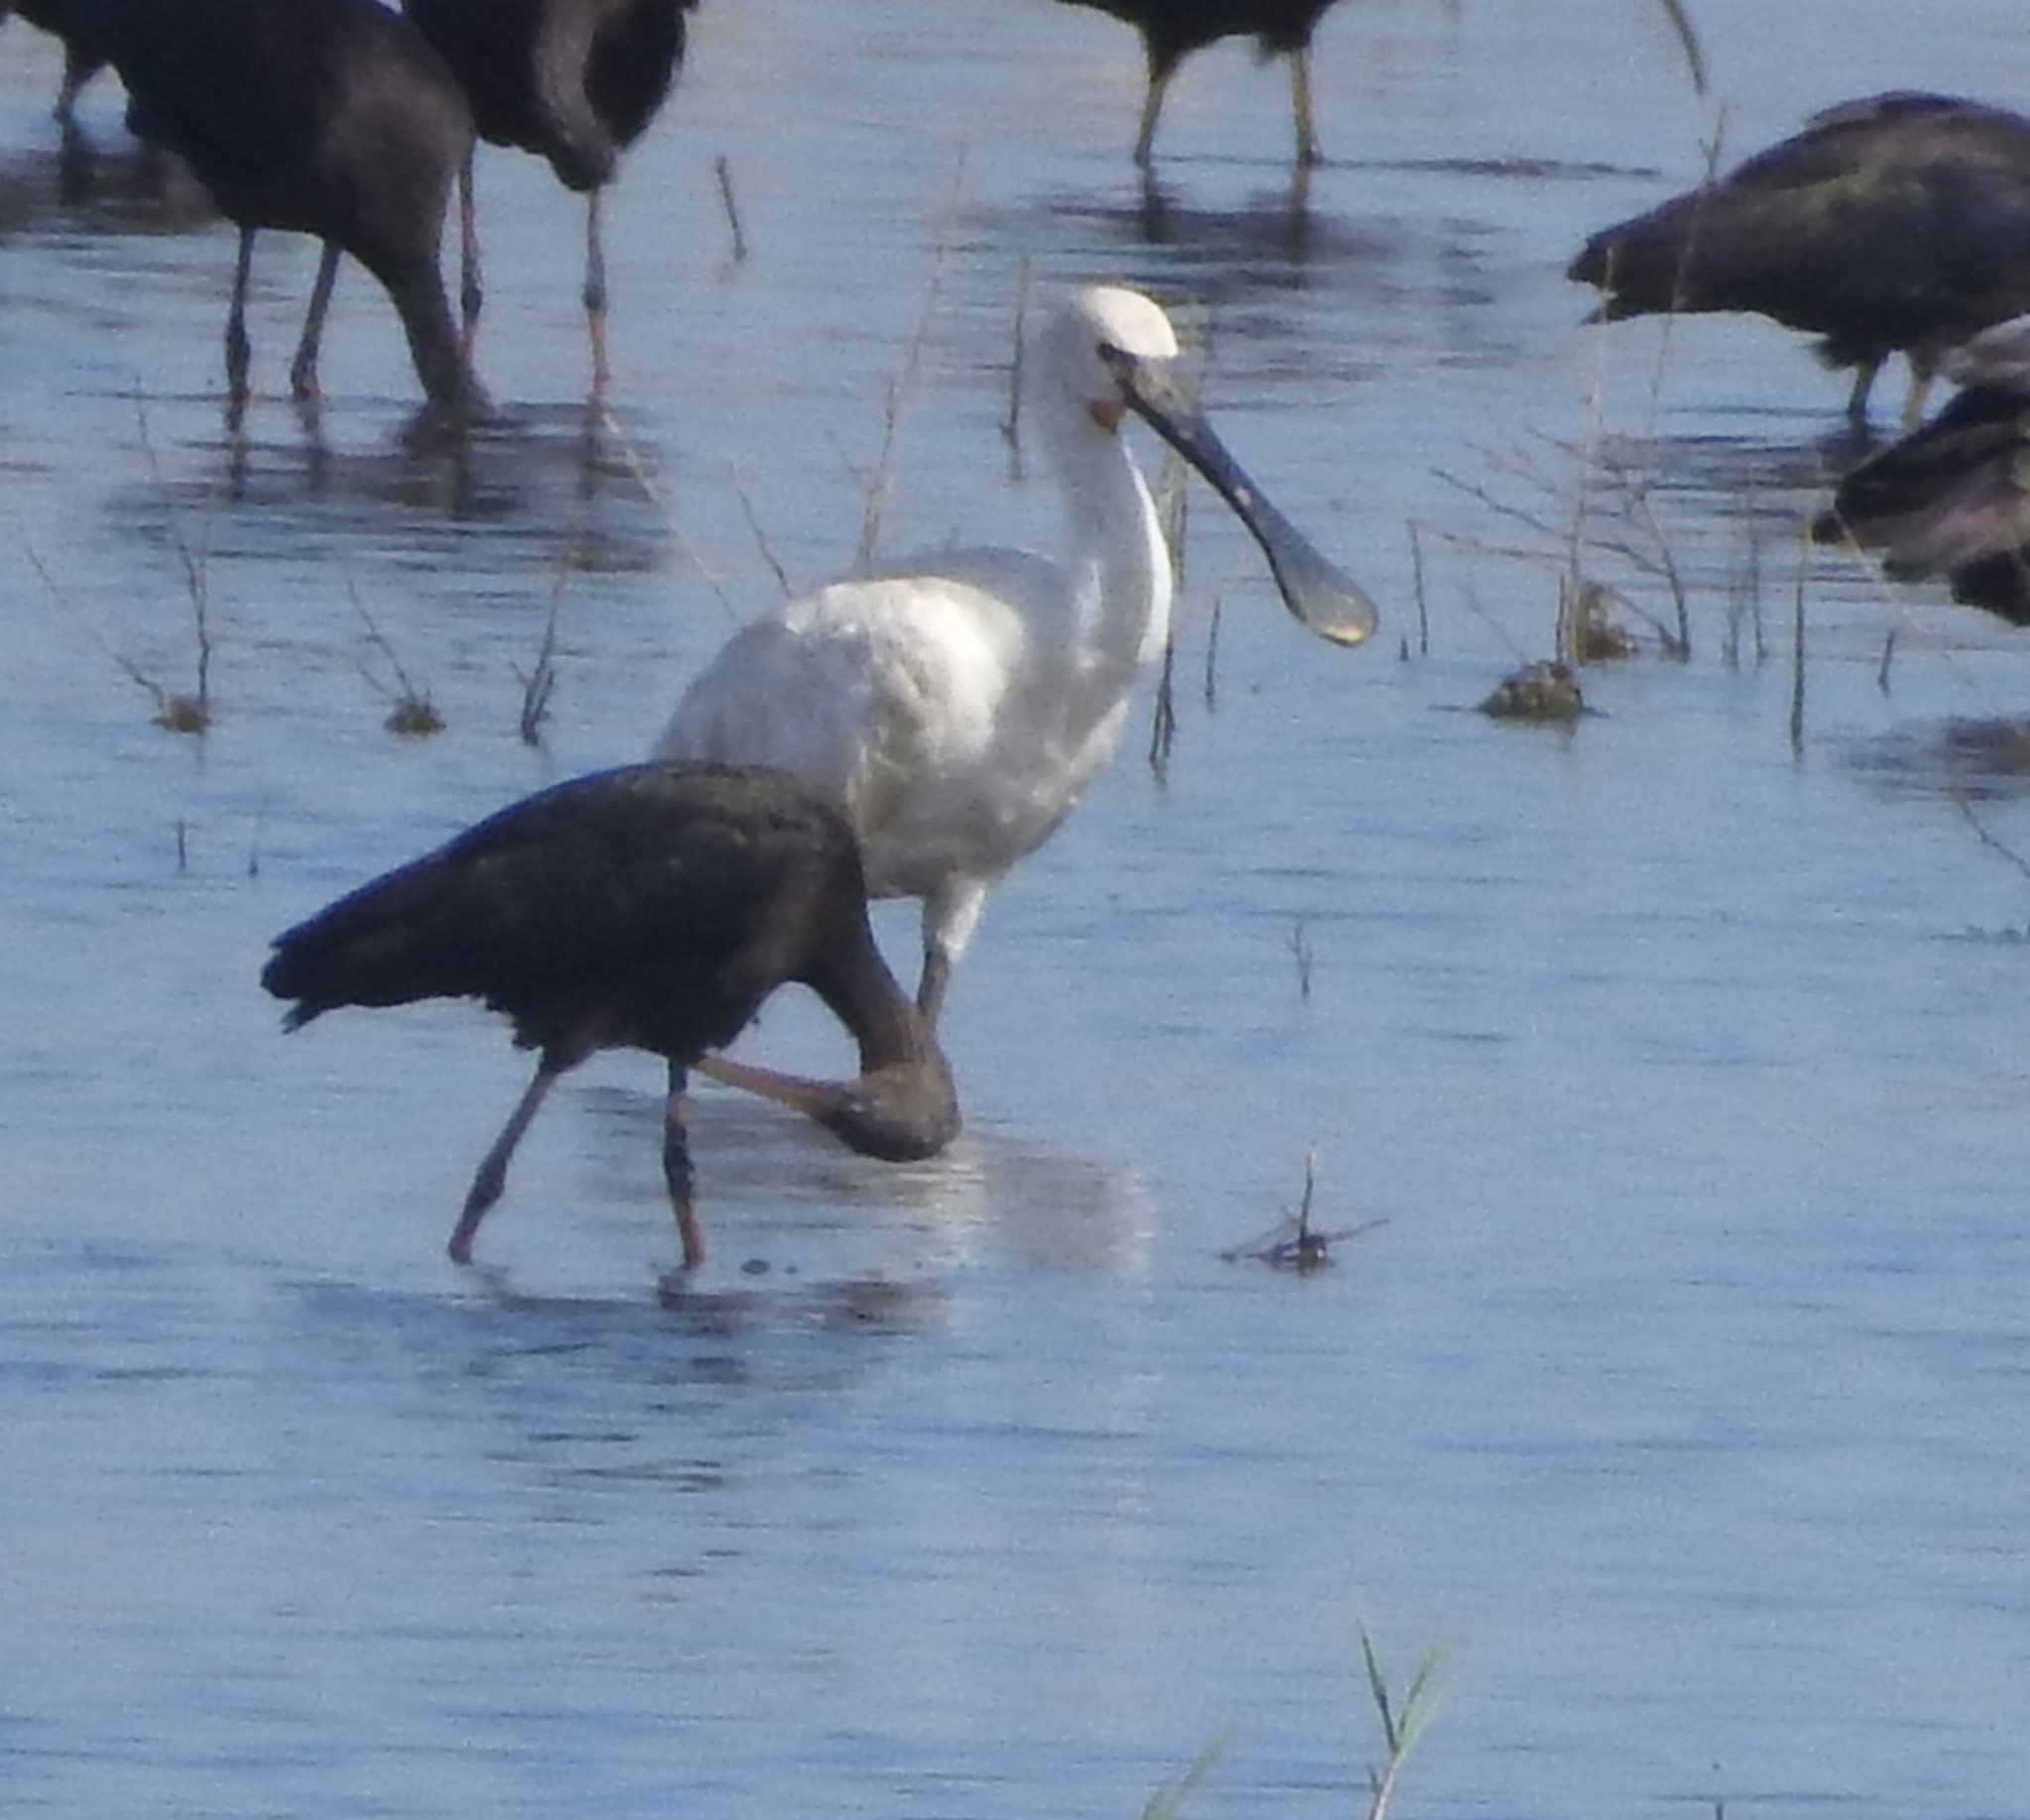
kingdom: Animalia
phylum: Chordata
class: Aves
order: Pelecaniformes
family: Threskiornithidae
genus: Platalea
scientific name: Platalea leucorodia
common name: Eurasian spoonbill
